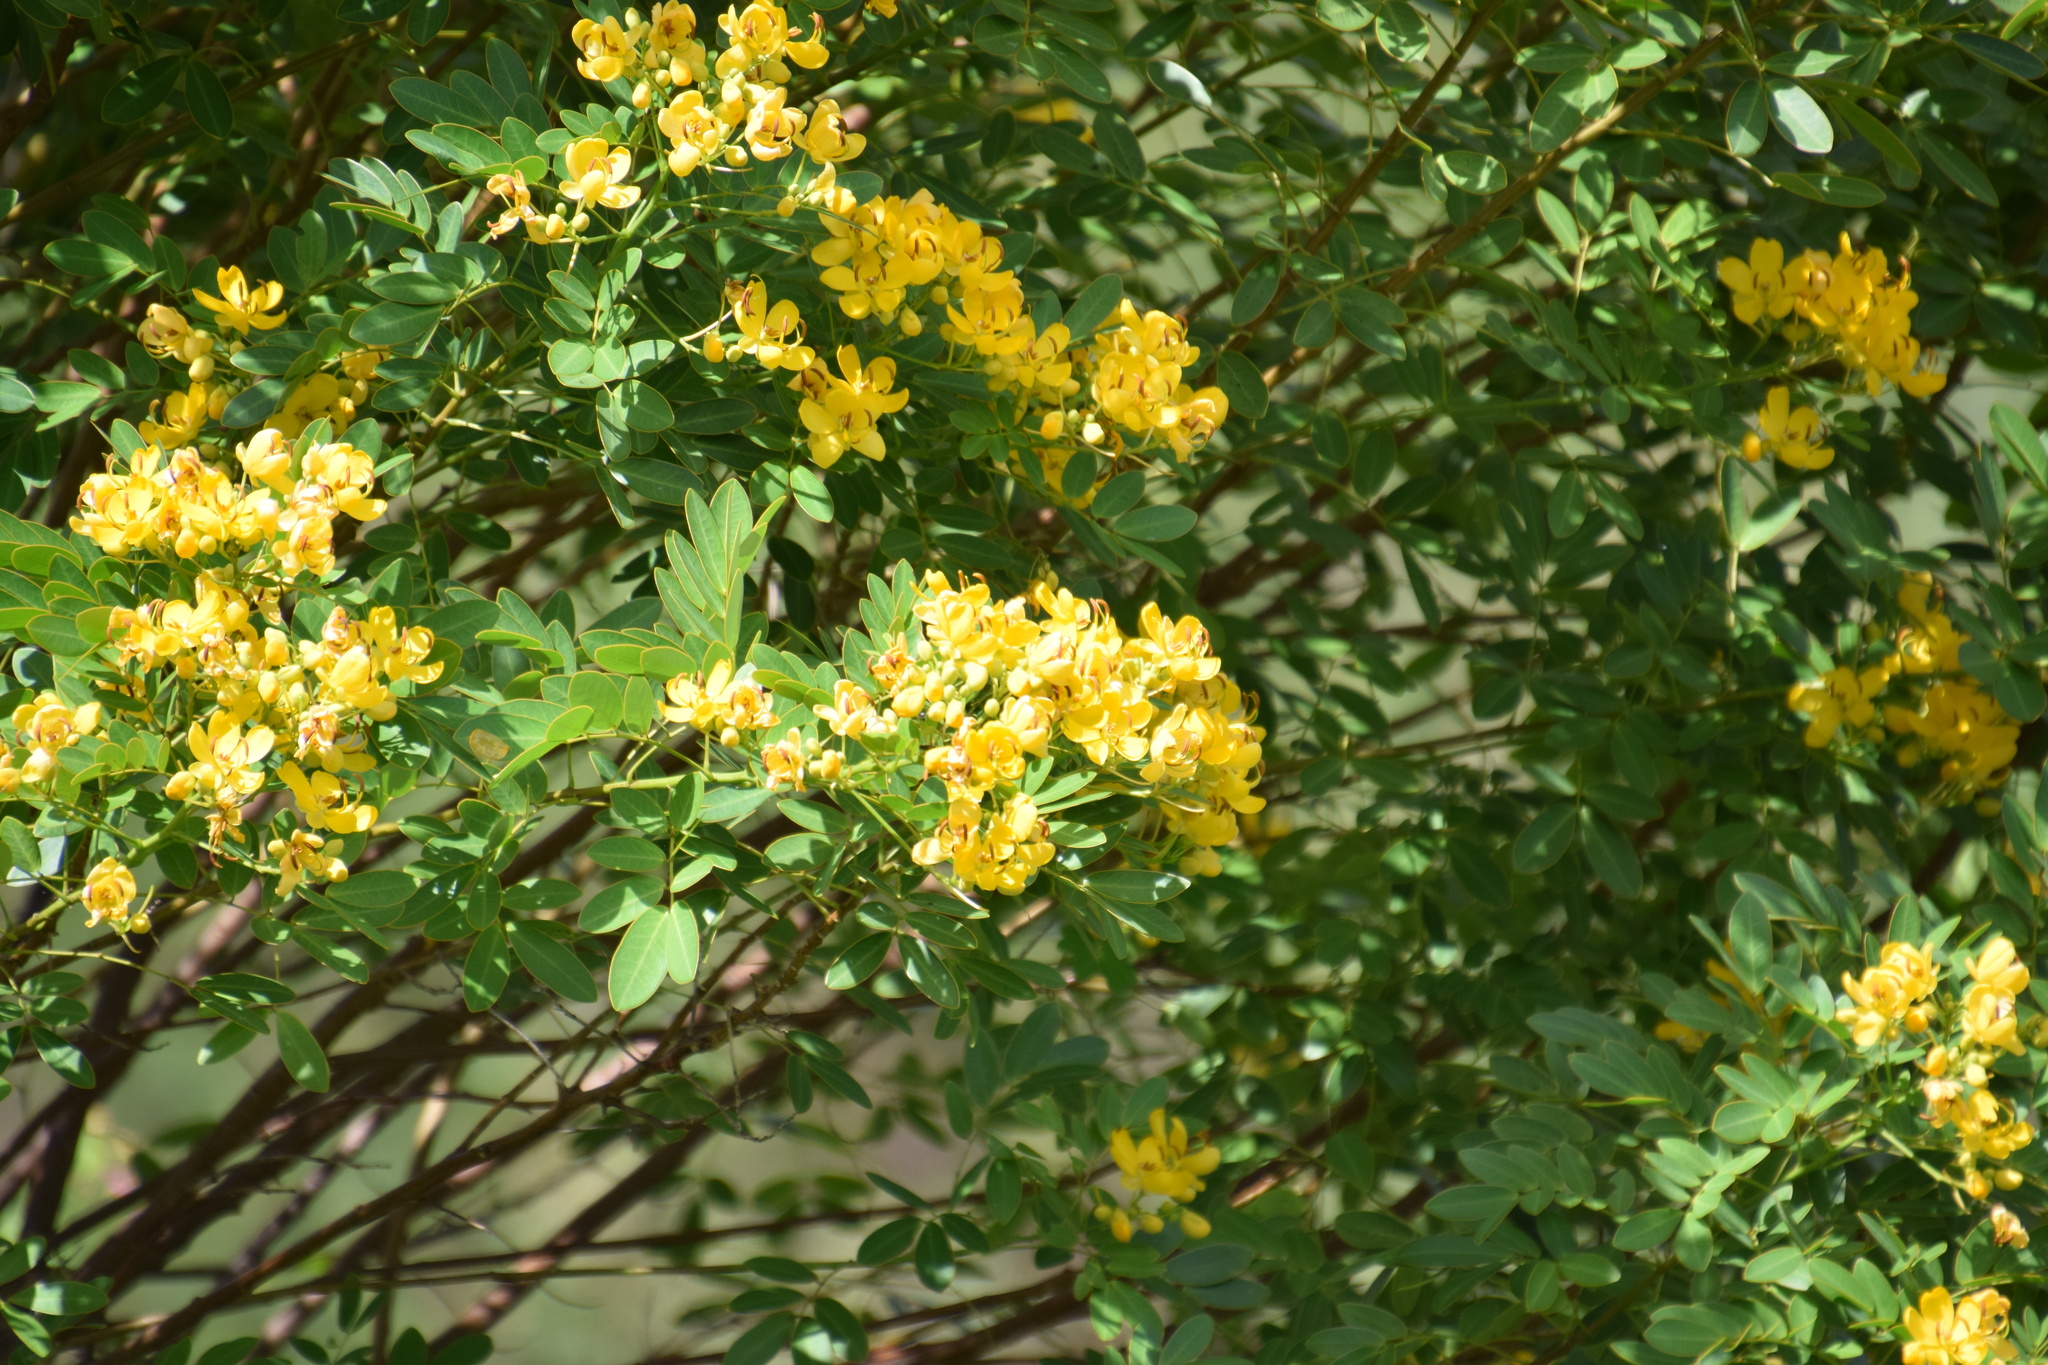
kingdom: Plantae
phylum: Tracheophyta
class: Magnoliopsida
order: Fabales
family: Fabaceae
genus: Senna
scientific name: Senna pendula
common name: Easter cassia
